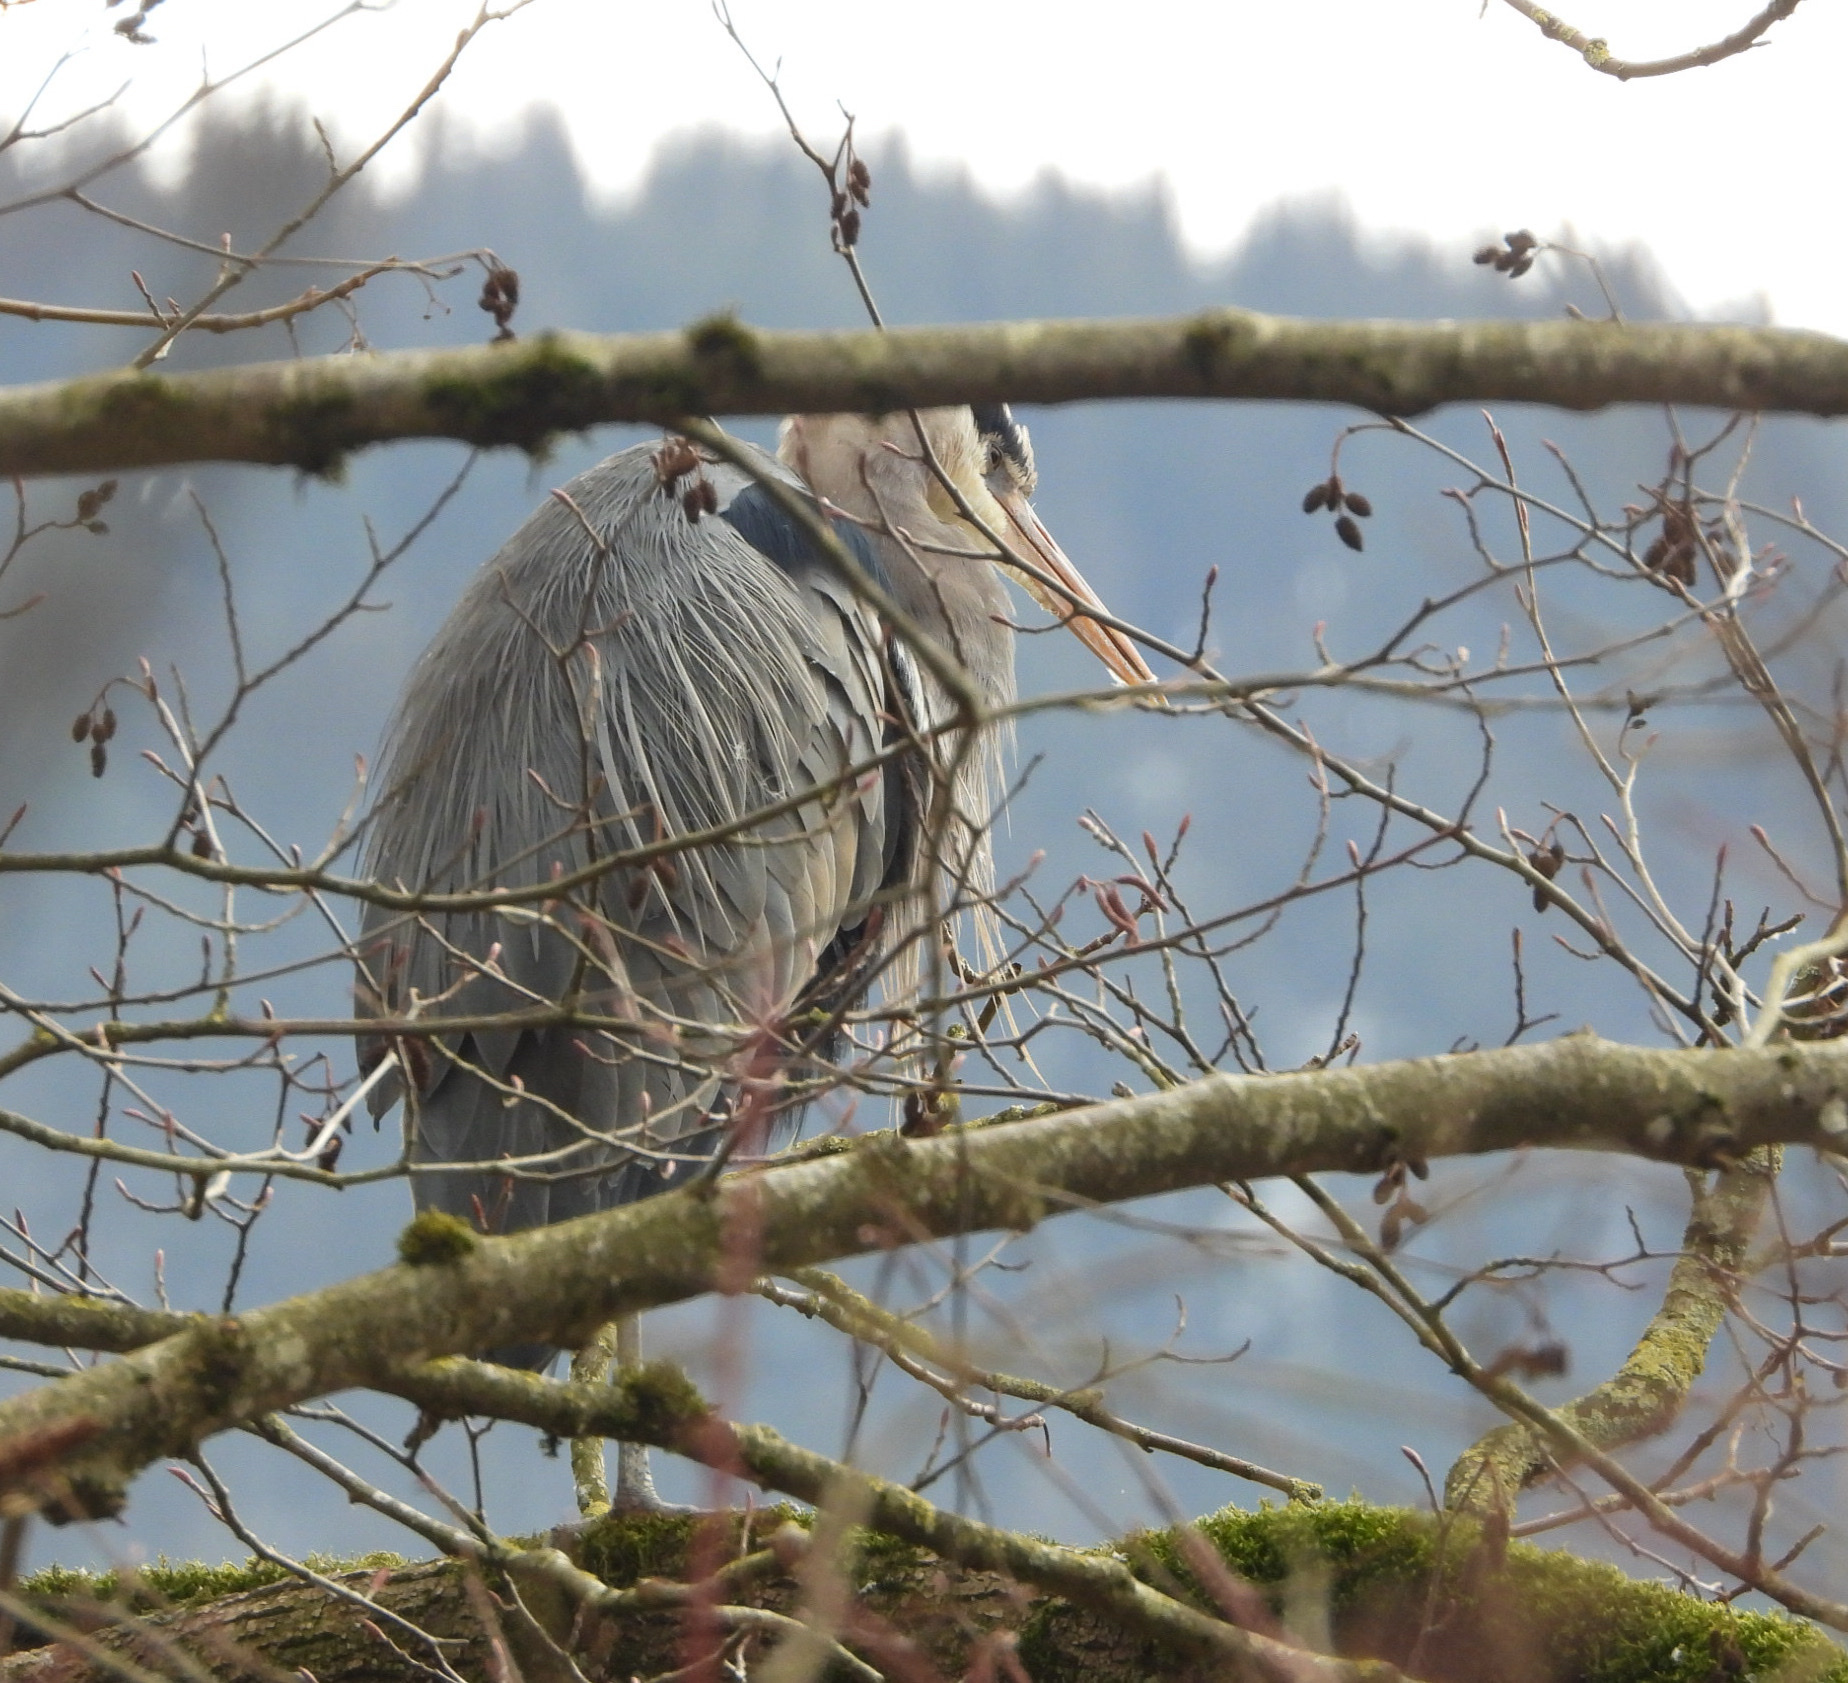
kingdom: Animalia
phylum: Chordata
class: Aves
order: Pelecaniformes
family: Ardeidae
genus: Ardea
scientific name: Ardea herodias
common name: Great blue heron
